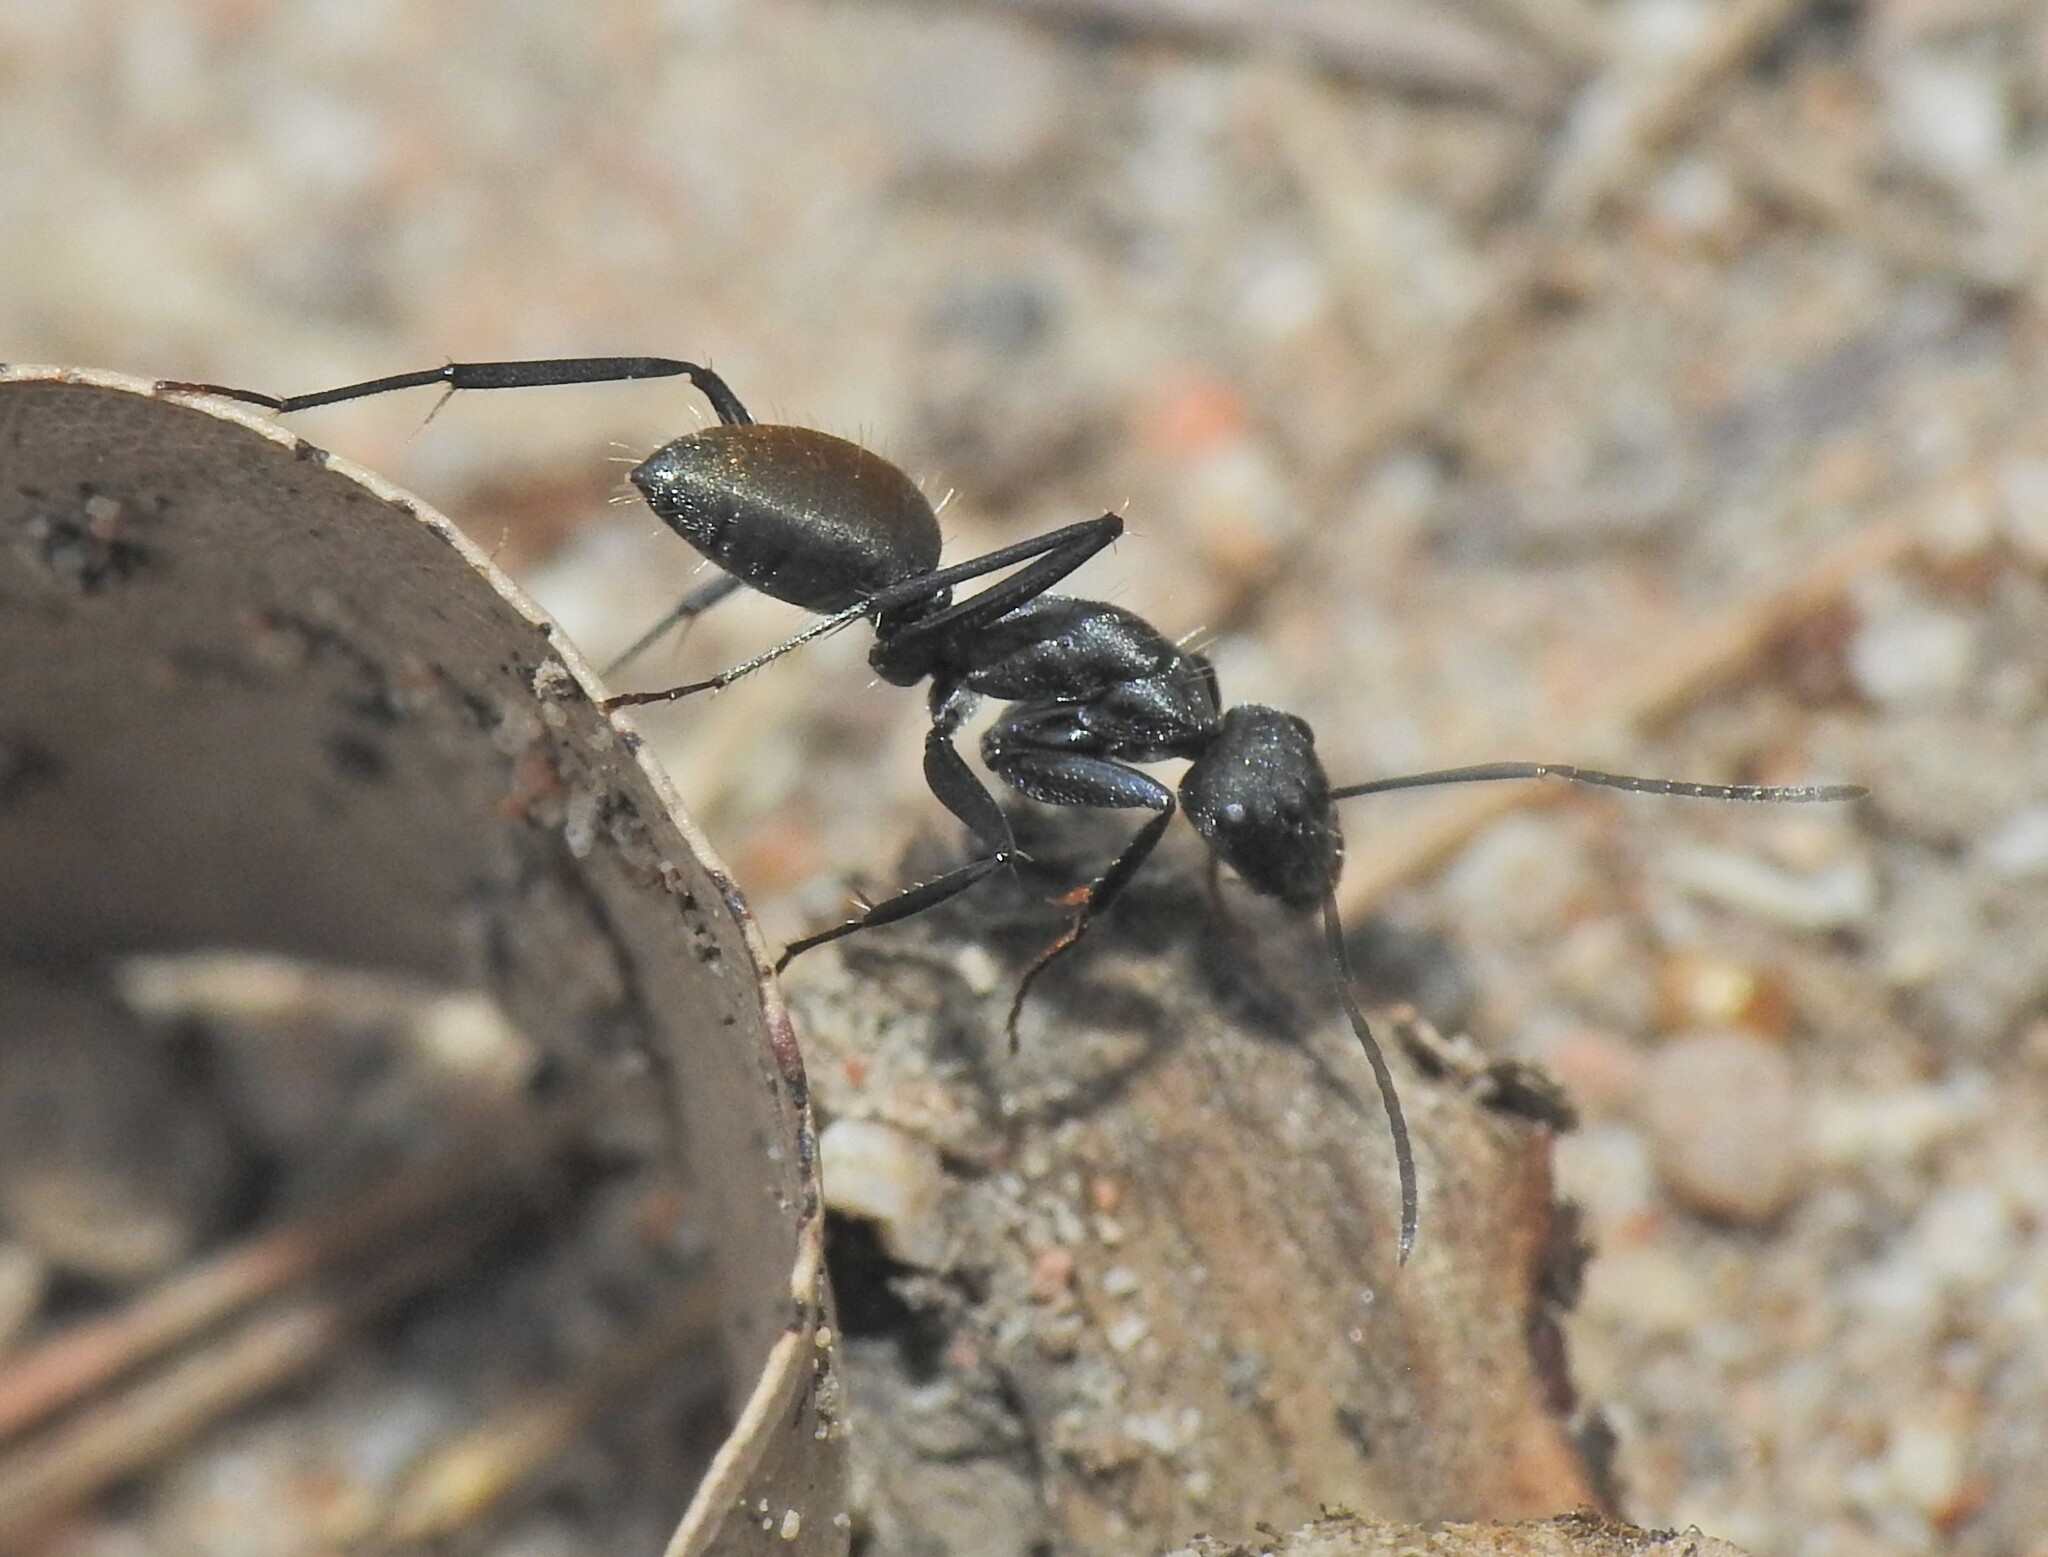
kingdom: Animalia
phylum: Arthropoda
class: Insecta
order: Hymenoptera
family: Formicidae
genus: Camponotus
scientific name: Camponotus aeneopilosus
